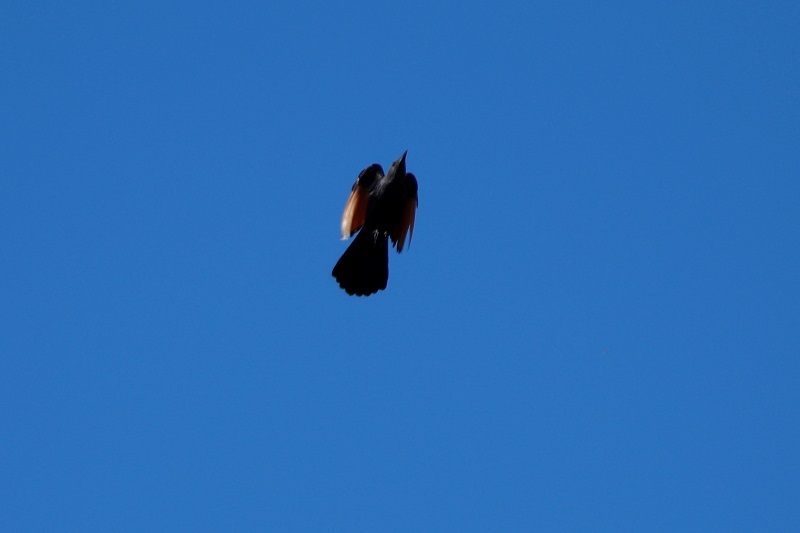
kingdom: Animalia
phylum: Chordata
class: Aves
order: Passeriformes
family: Sturnidae
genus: Onychognathus
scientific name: Onychognathus morio
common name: Red-winged starling
